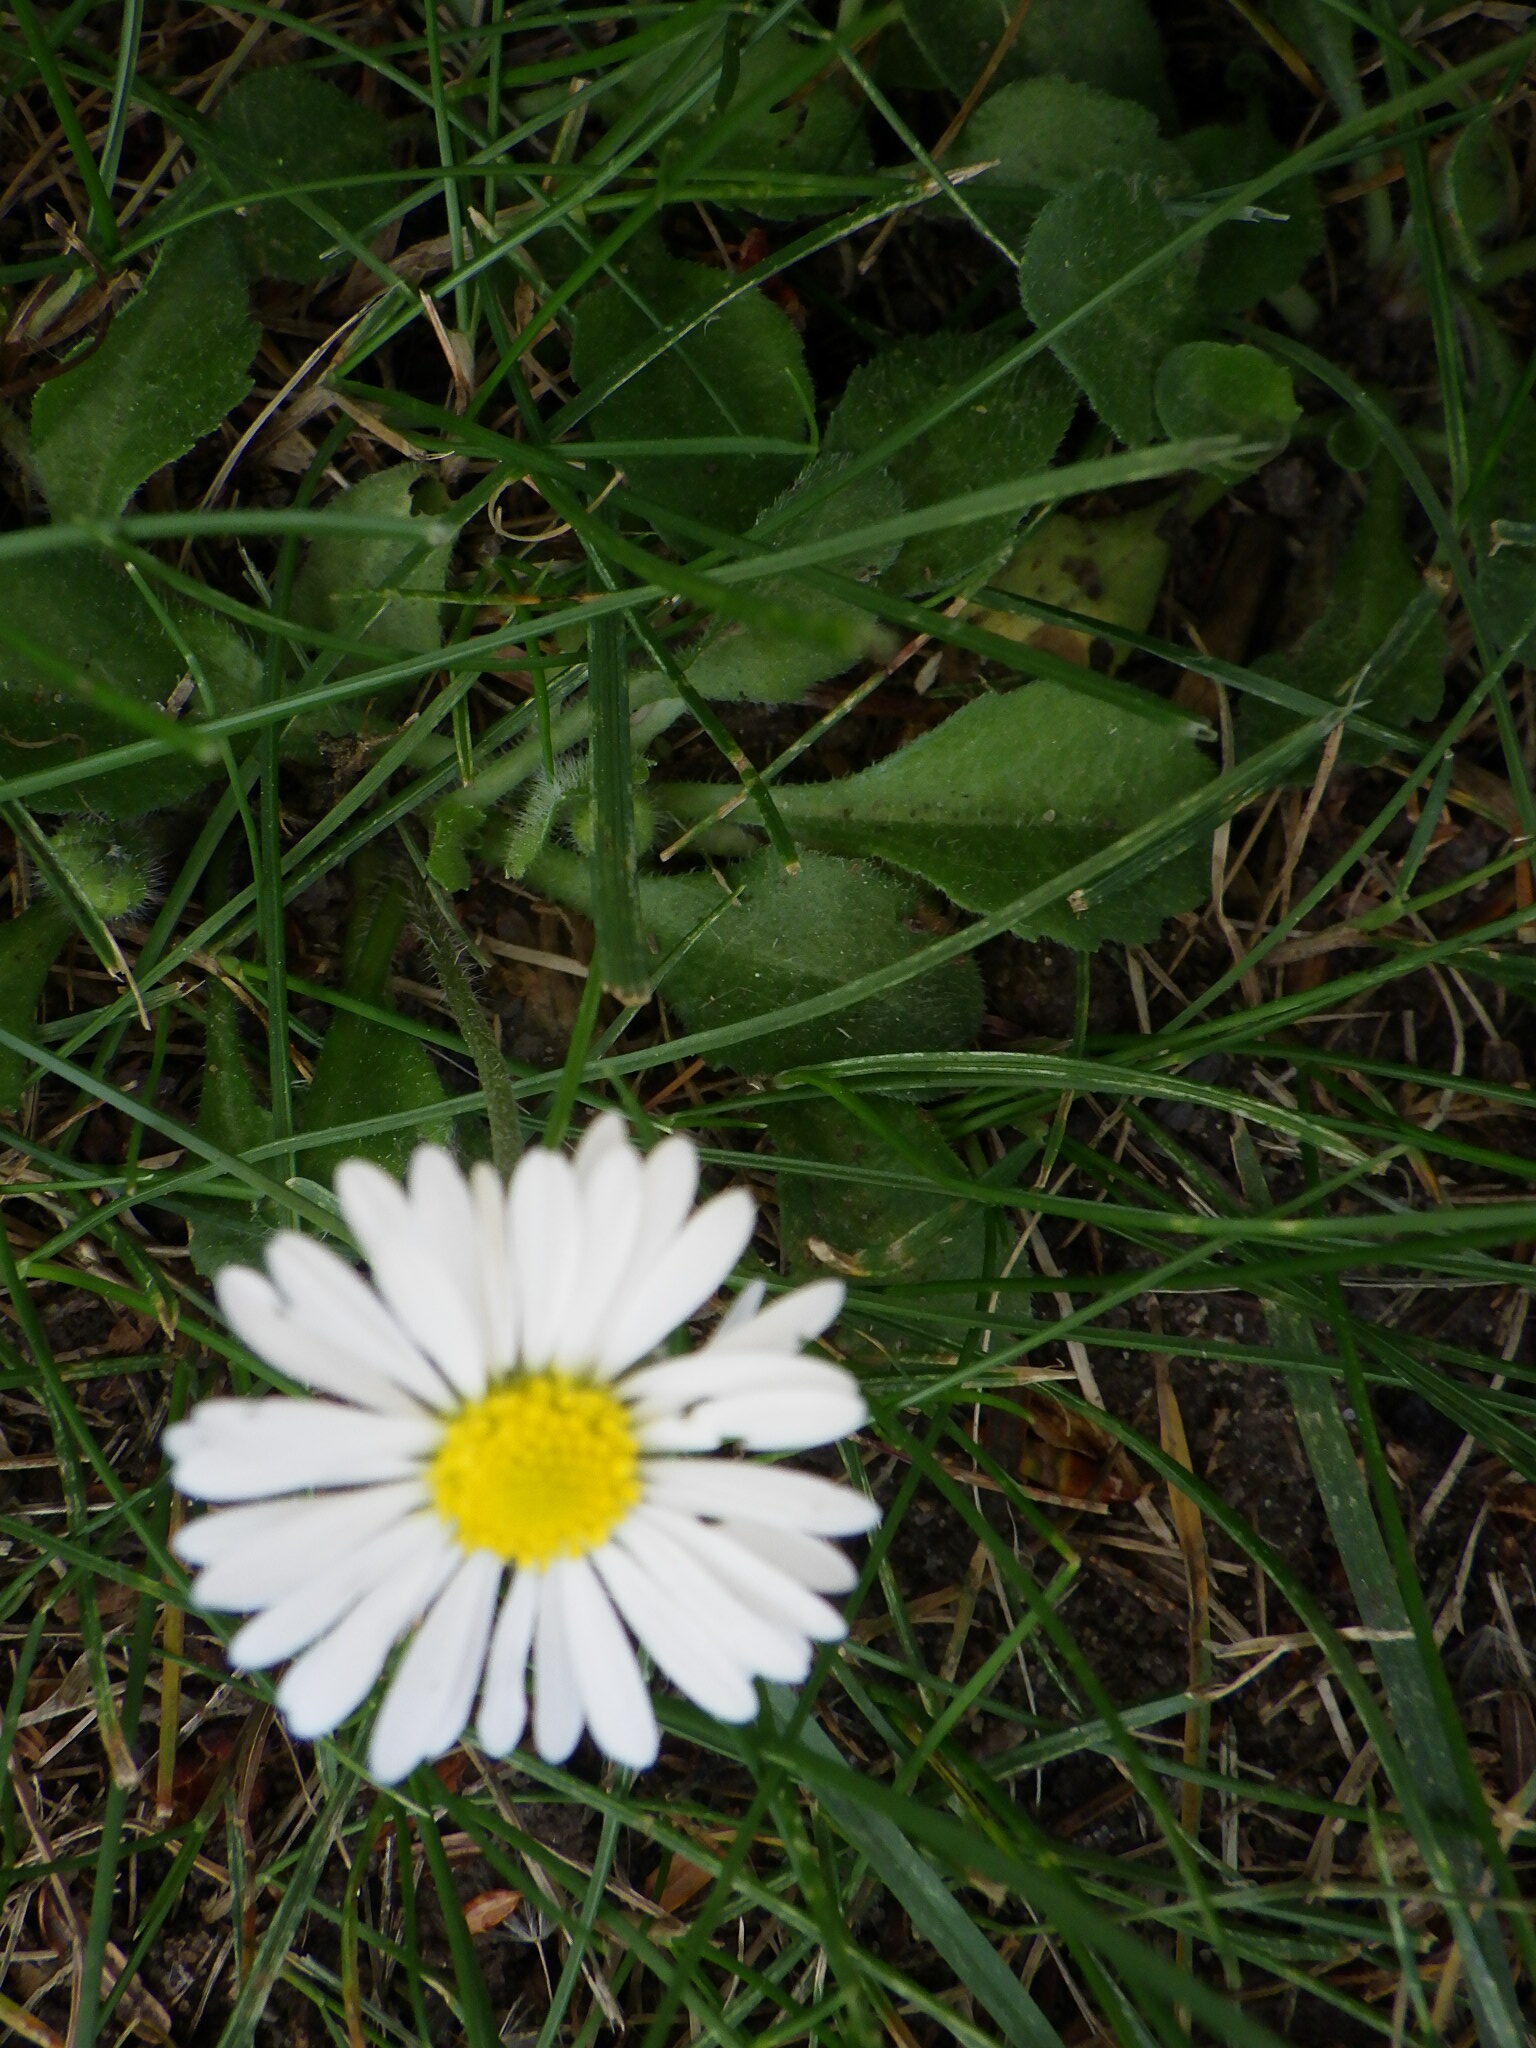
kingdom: Plantae
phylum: Tracheophyta
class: Magnoliopsida
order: Asterales
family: Asteraceae
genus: Bellis
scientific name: Bellis perennis
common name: Lawndaisy
